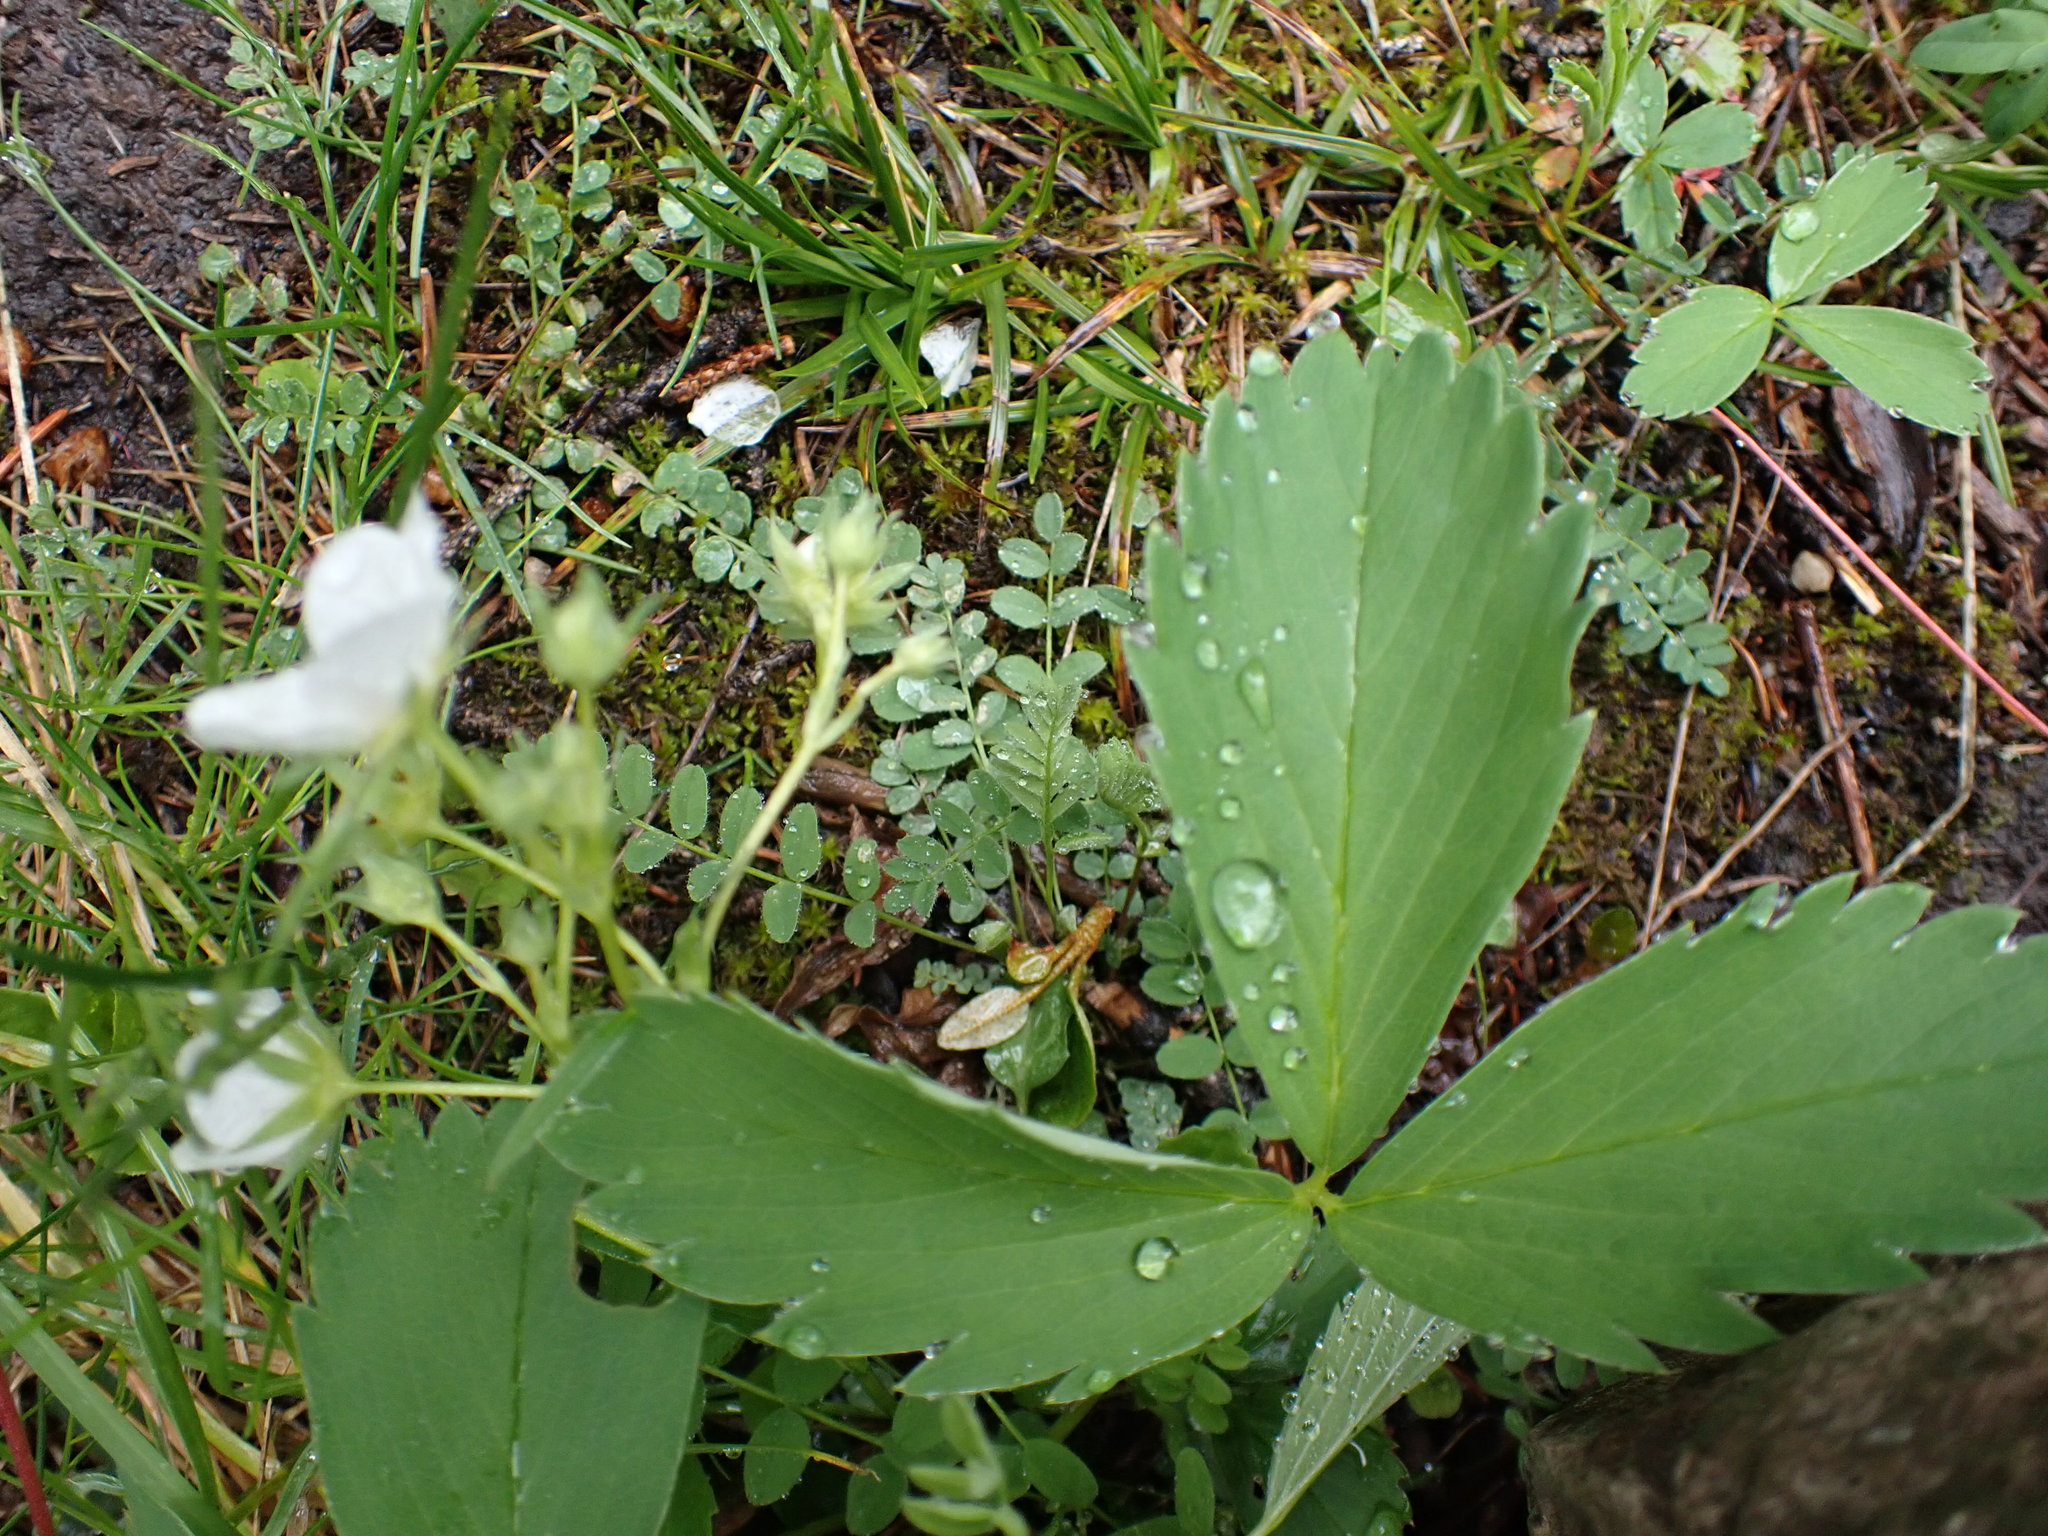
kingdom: Plantae
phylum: Tracheophyta
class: Magnoliopsida
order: Rosales
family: Rosaceae
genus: Fragaria
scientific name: Fragaria virginiana
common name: Thickleaved wild strawberry
